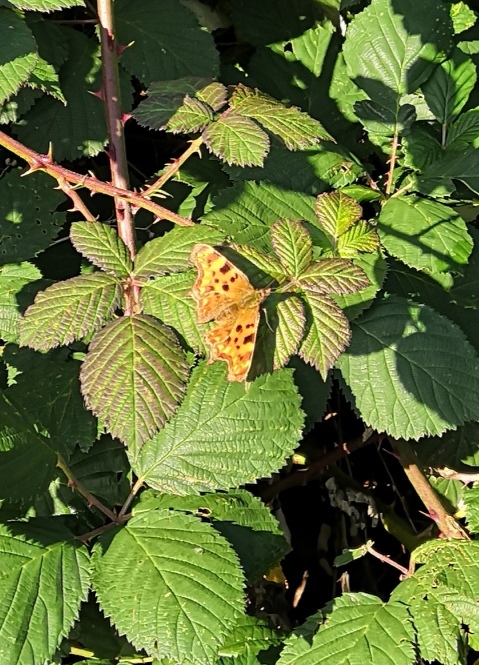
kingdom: Animalia
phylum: Arthropoda
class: Insecta
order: Lepidoptera
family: Nymphalidae
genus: Polygonia
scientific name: Polygonia c-album
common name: Comma
